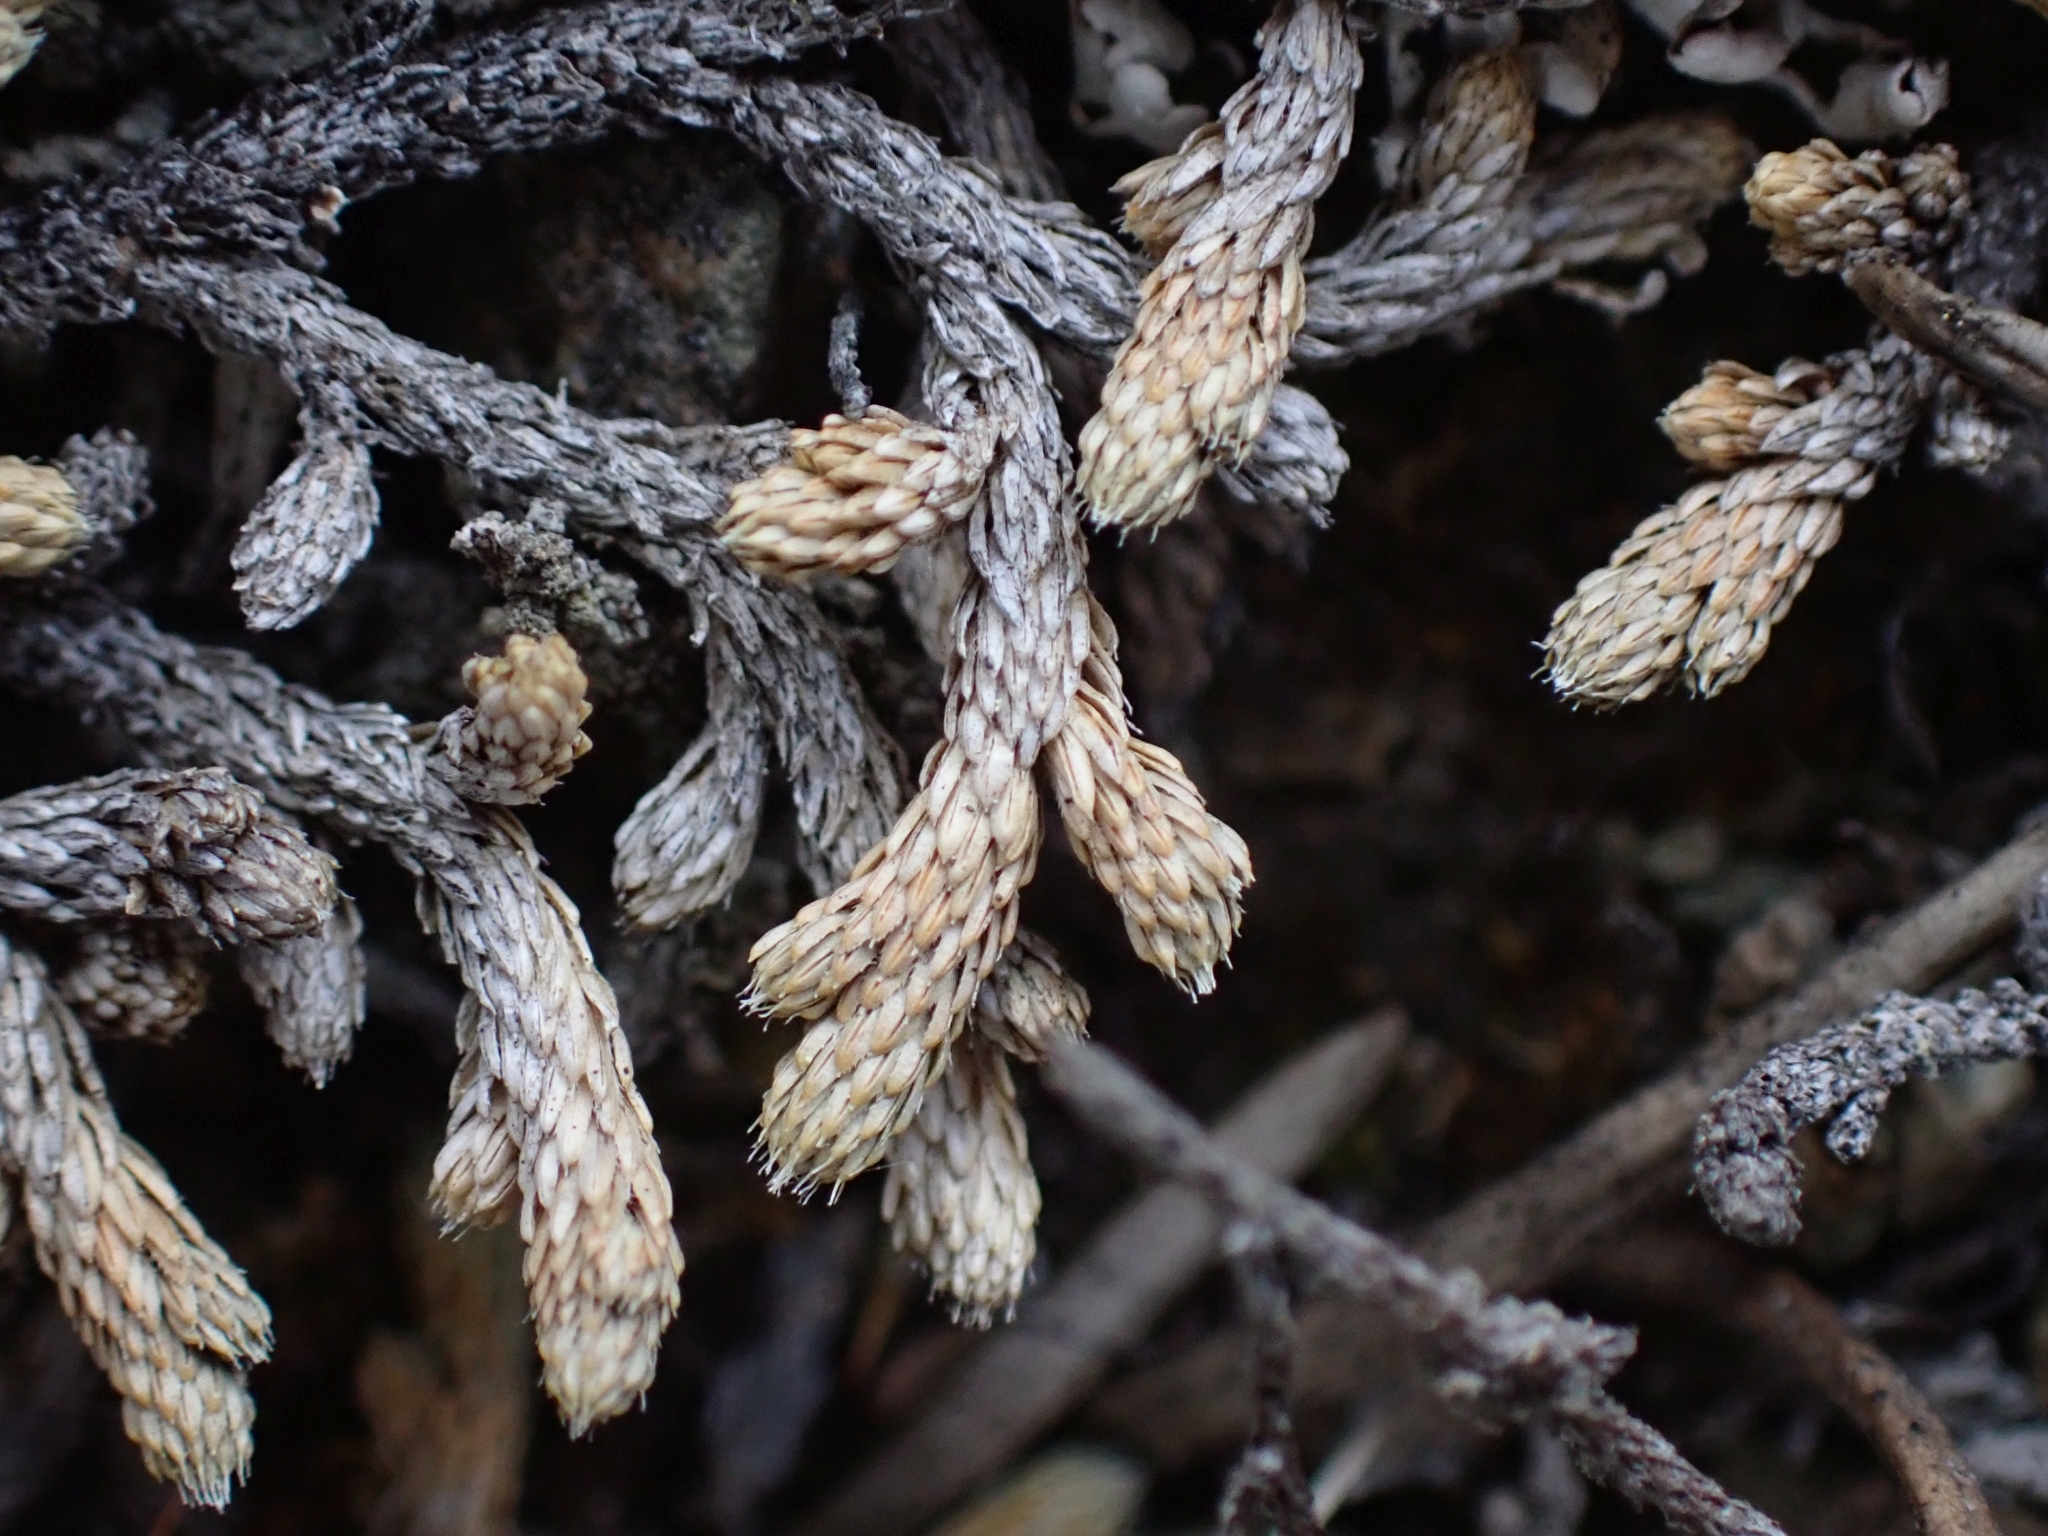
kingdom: Plantae
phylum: Tracheophyta
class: Lycopodiopsida
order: Selaginellales
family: Selaginellaceae
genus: Selaginella
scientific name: Selaginella wallacei
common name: Wallace's selaginella
